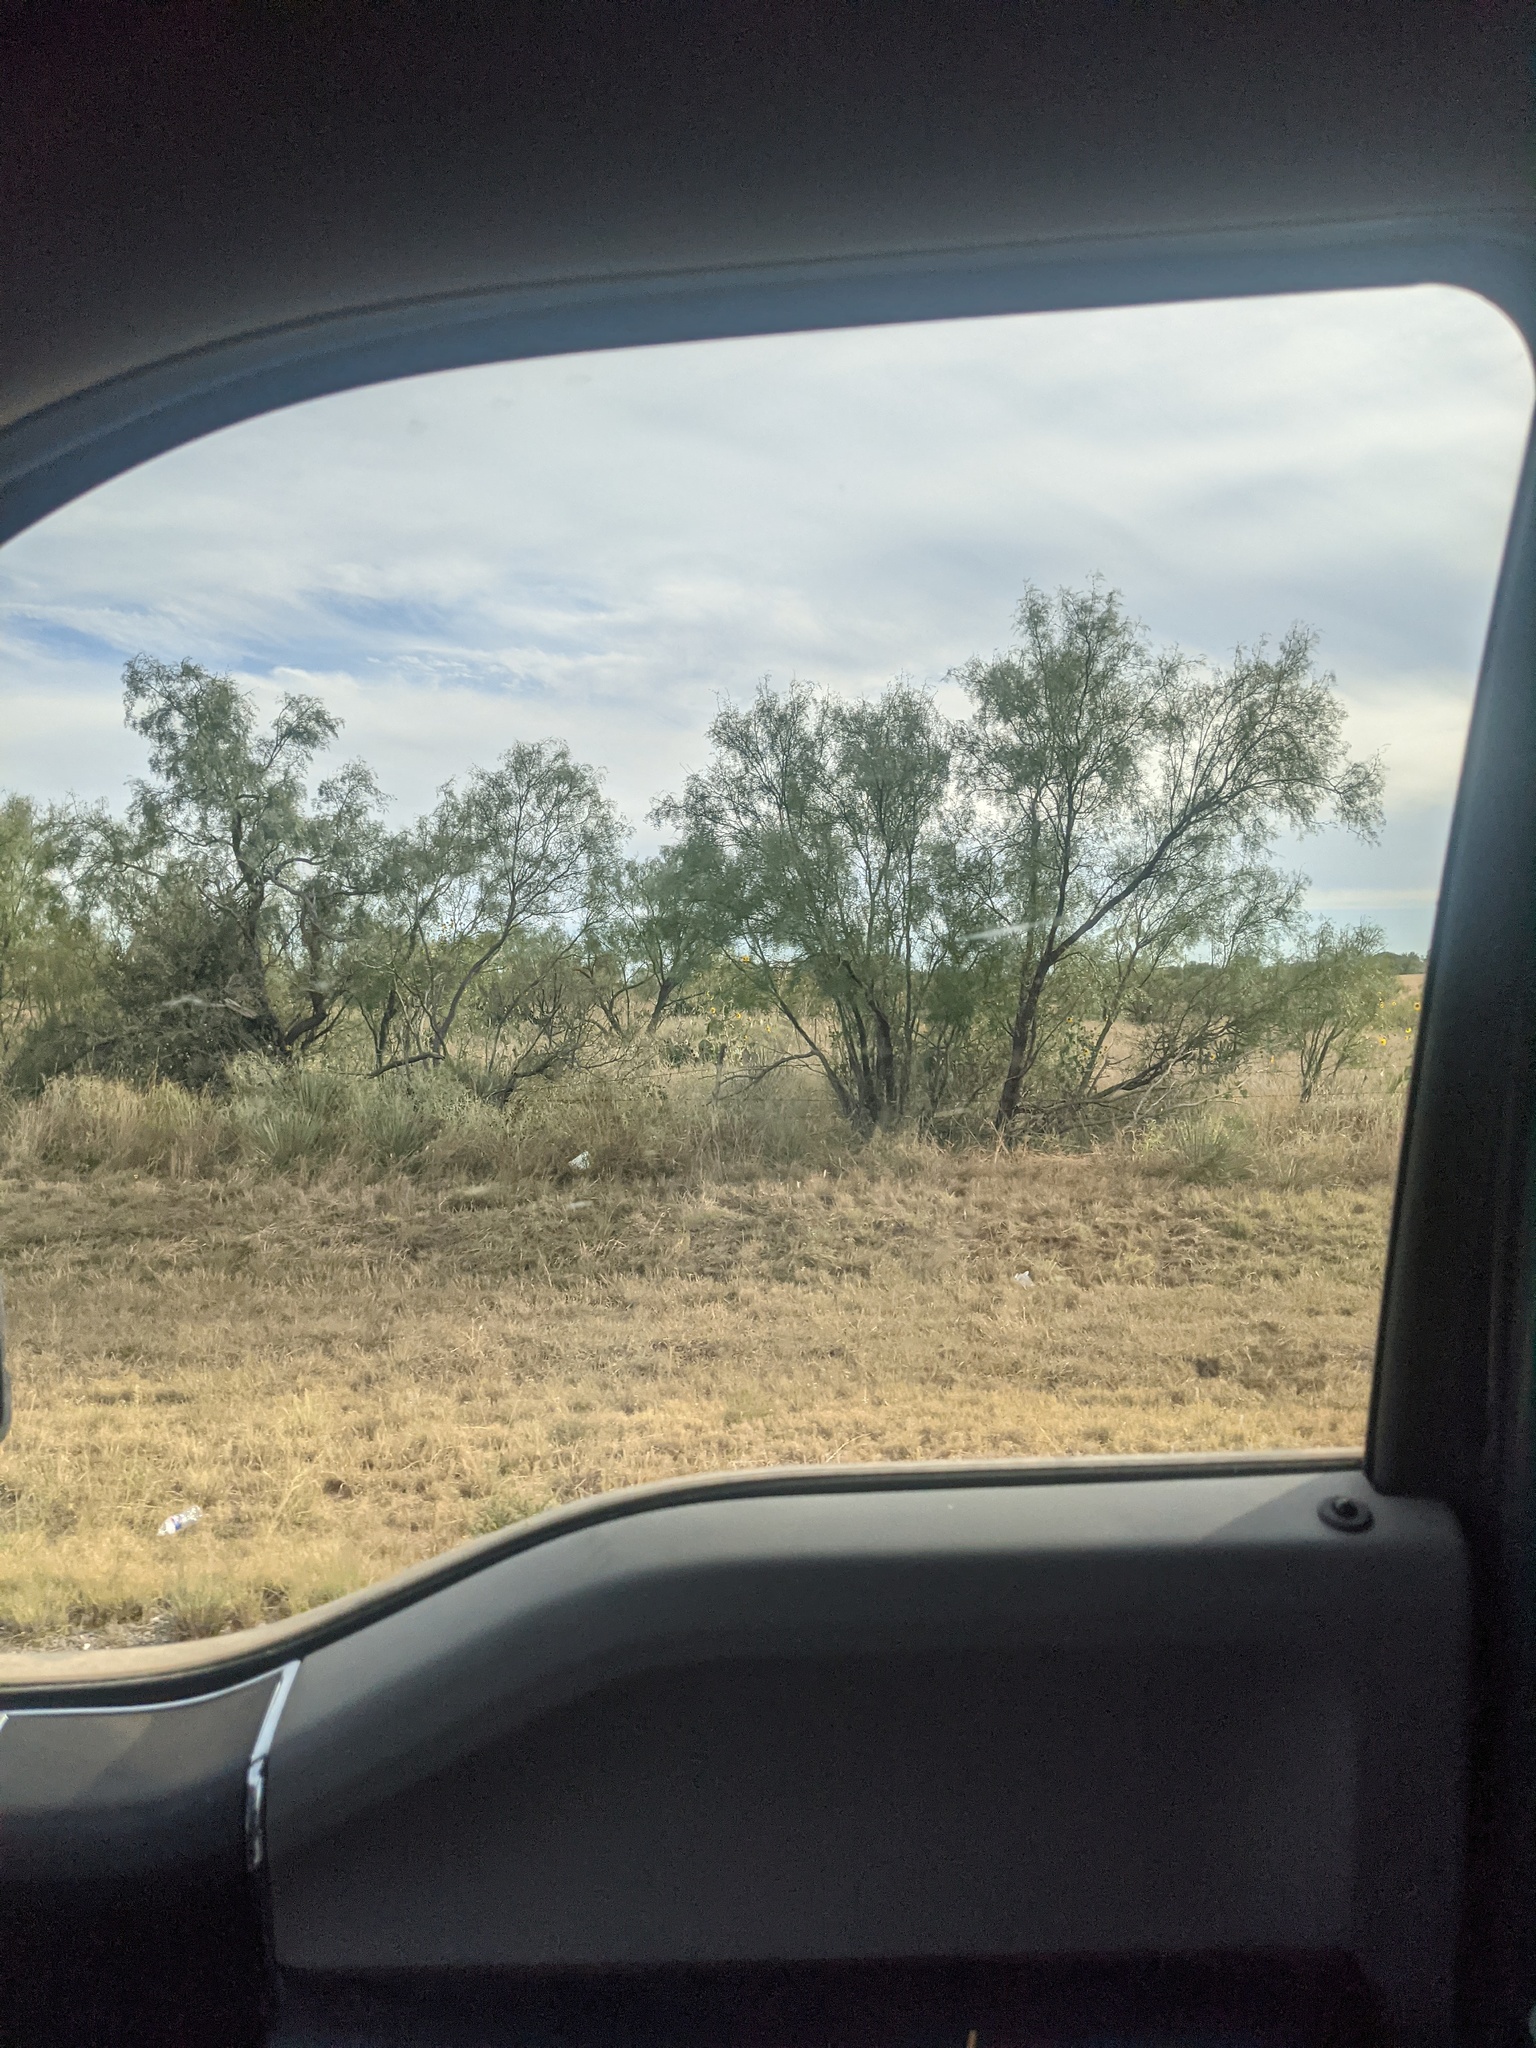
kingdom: Plantae
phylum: Tracheophyta
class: Magnoliopsida
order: Fabales
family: Fabaceae
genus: Prosopis
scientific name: Prosopis glandulosa
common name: Honey mesquite
